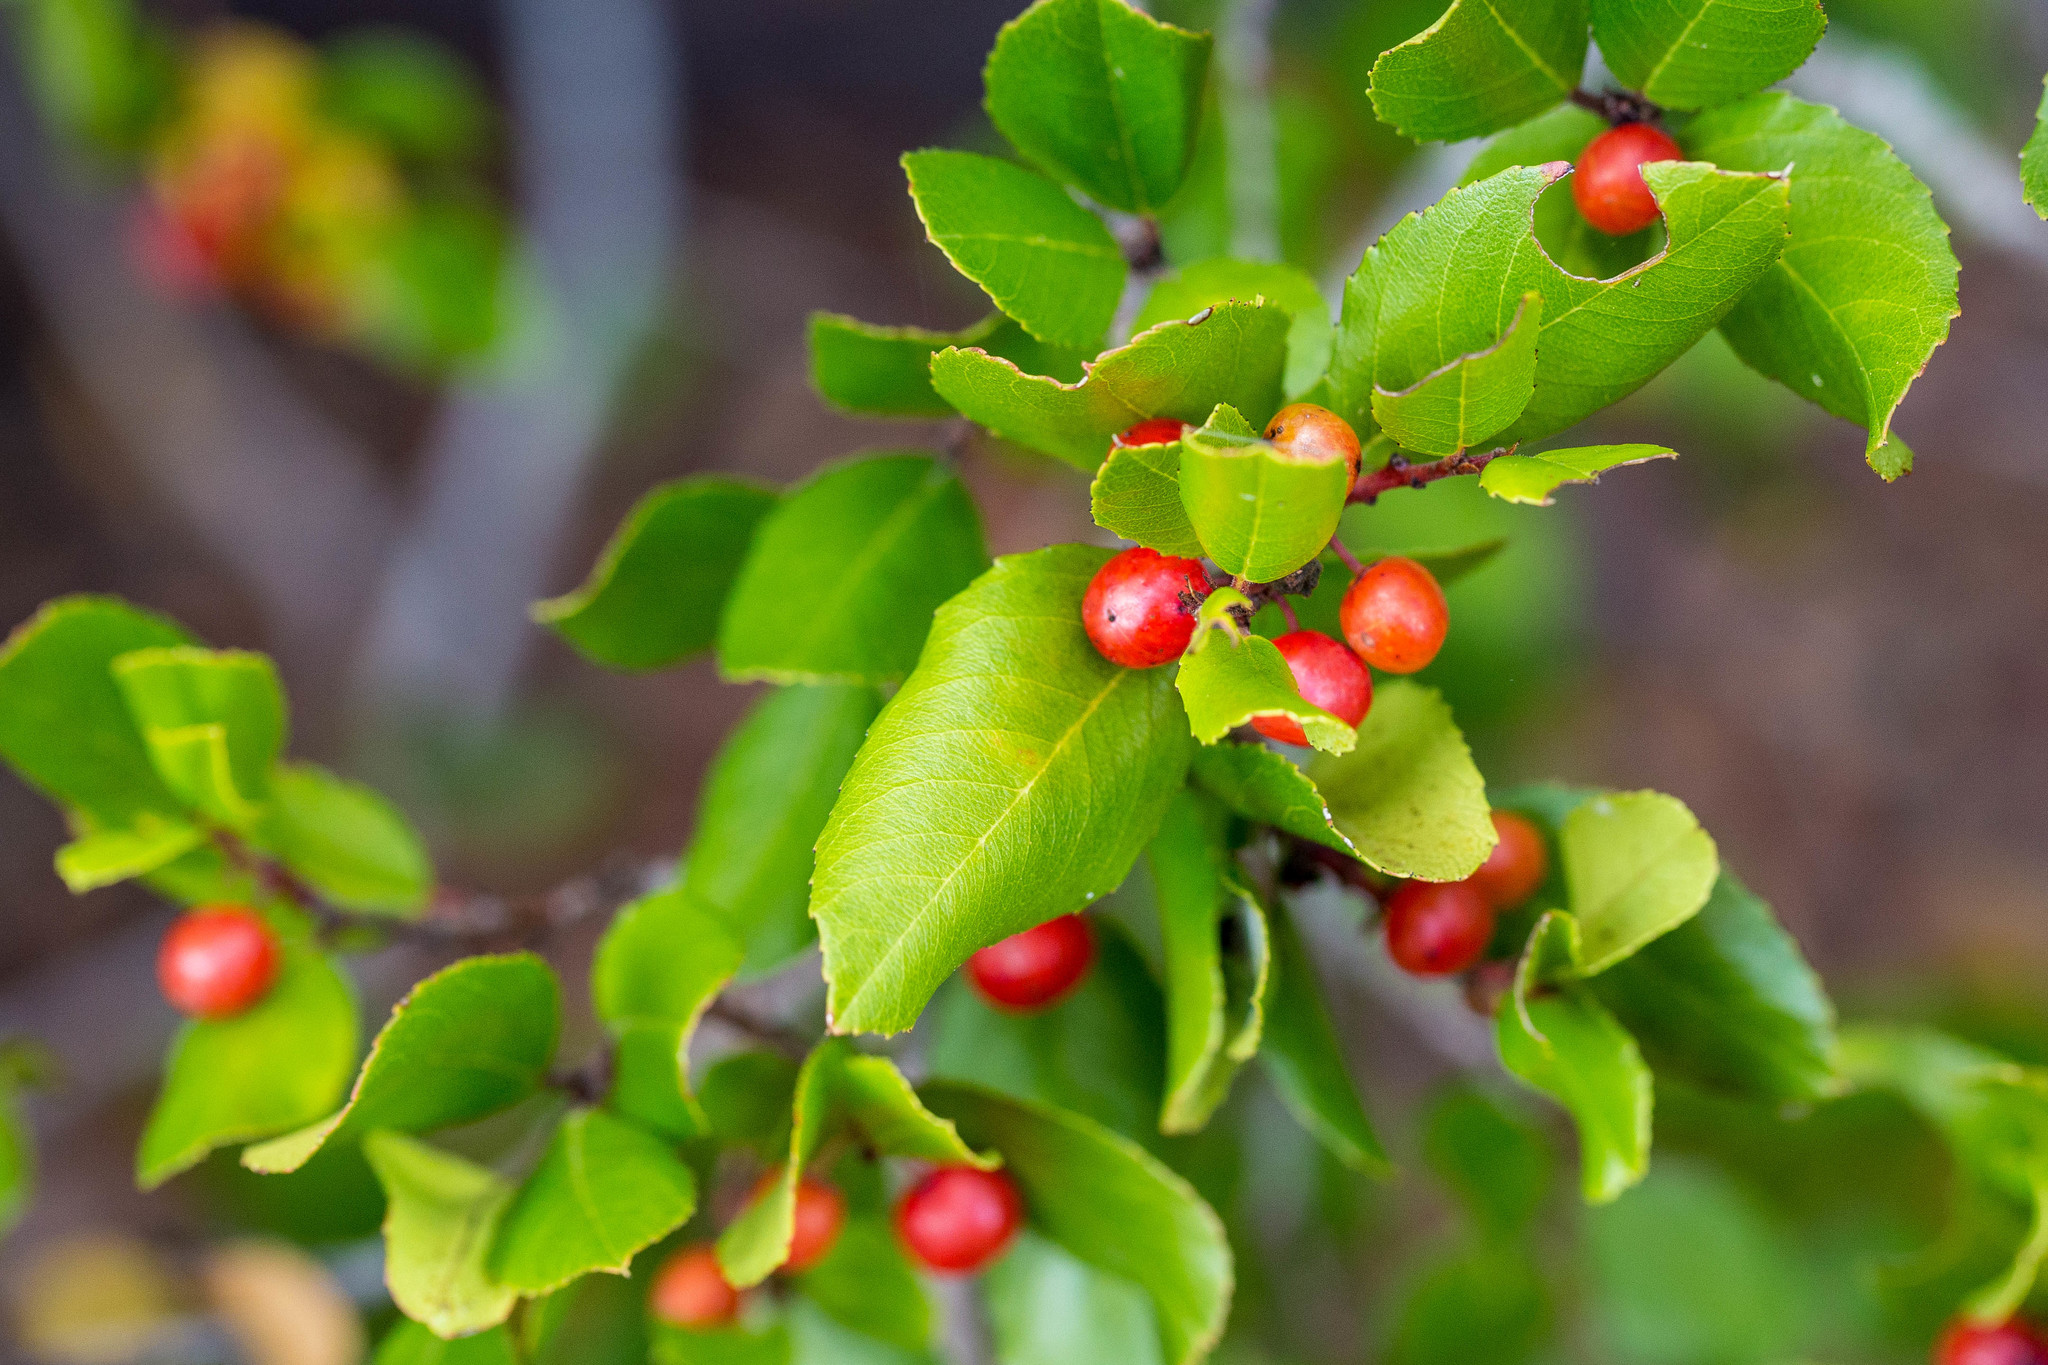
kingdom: Plantae
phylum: Tracheophyta
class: Magnoliopsida
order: Rosales
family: Rhamnaceae
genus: Endotropis
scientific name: Endotropis crocea
